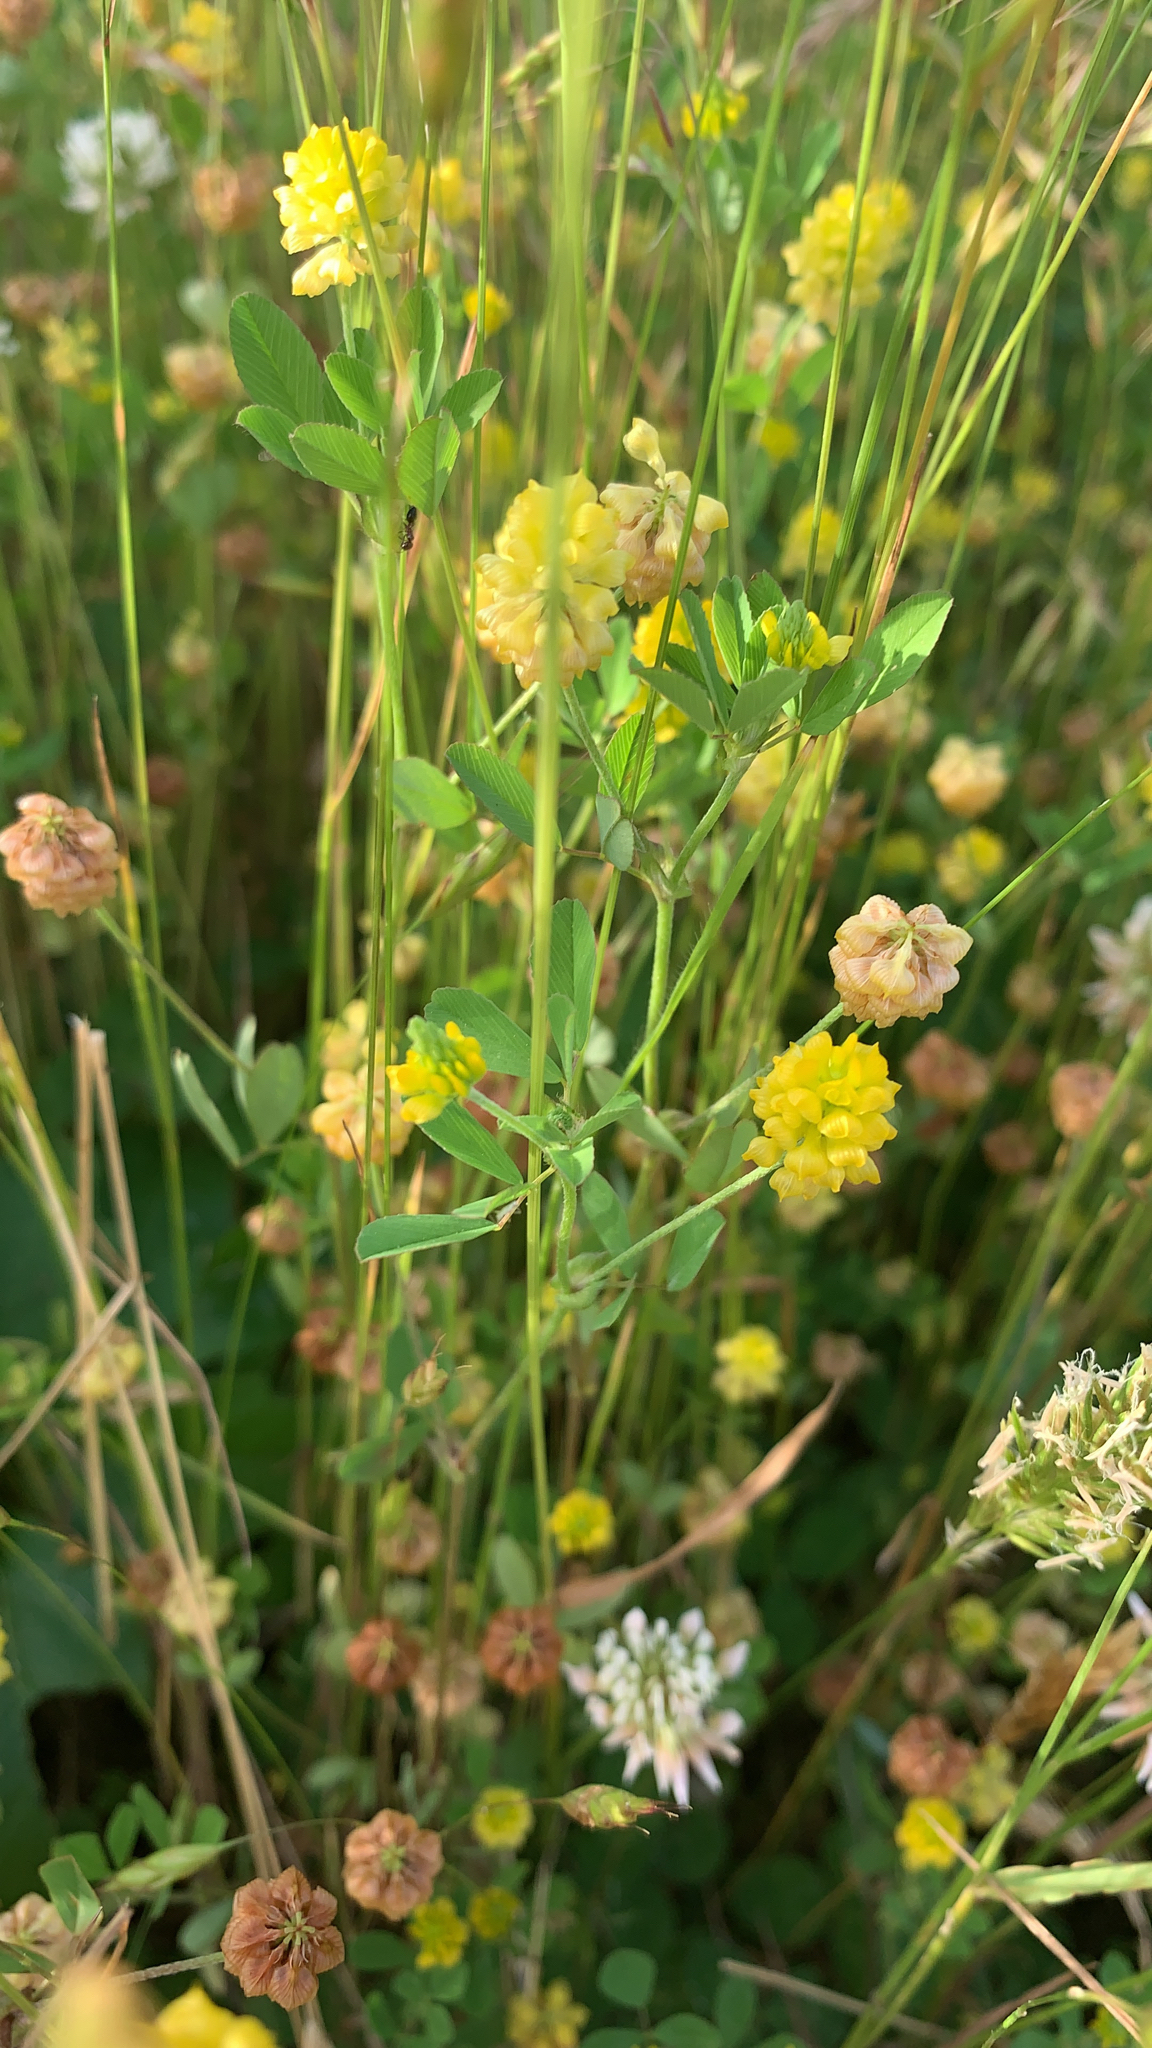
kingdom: Plantae
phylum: Tracheophyta
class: Magnoliopsida
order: Fabales
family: Fabaceae
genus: Trifolium
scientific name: Trifolium campestre
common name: Field clover
